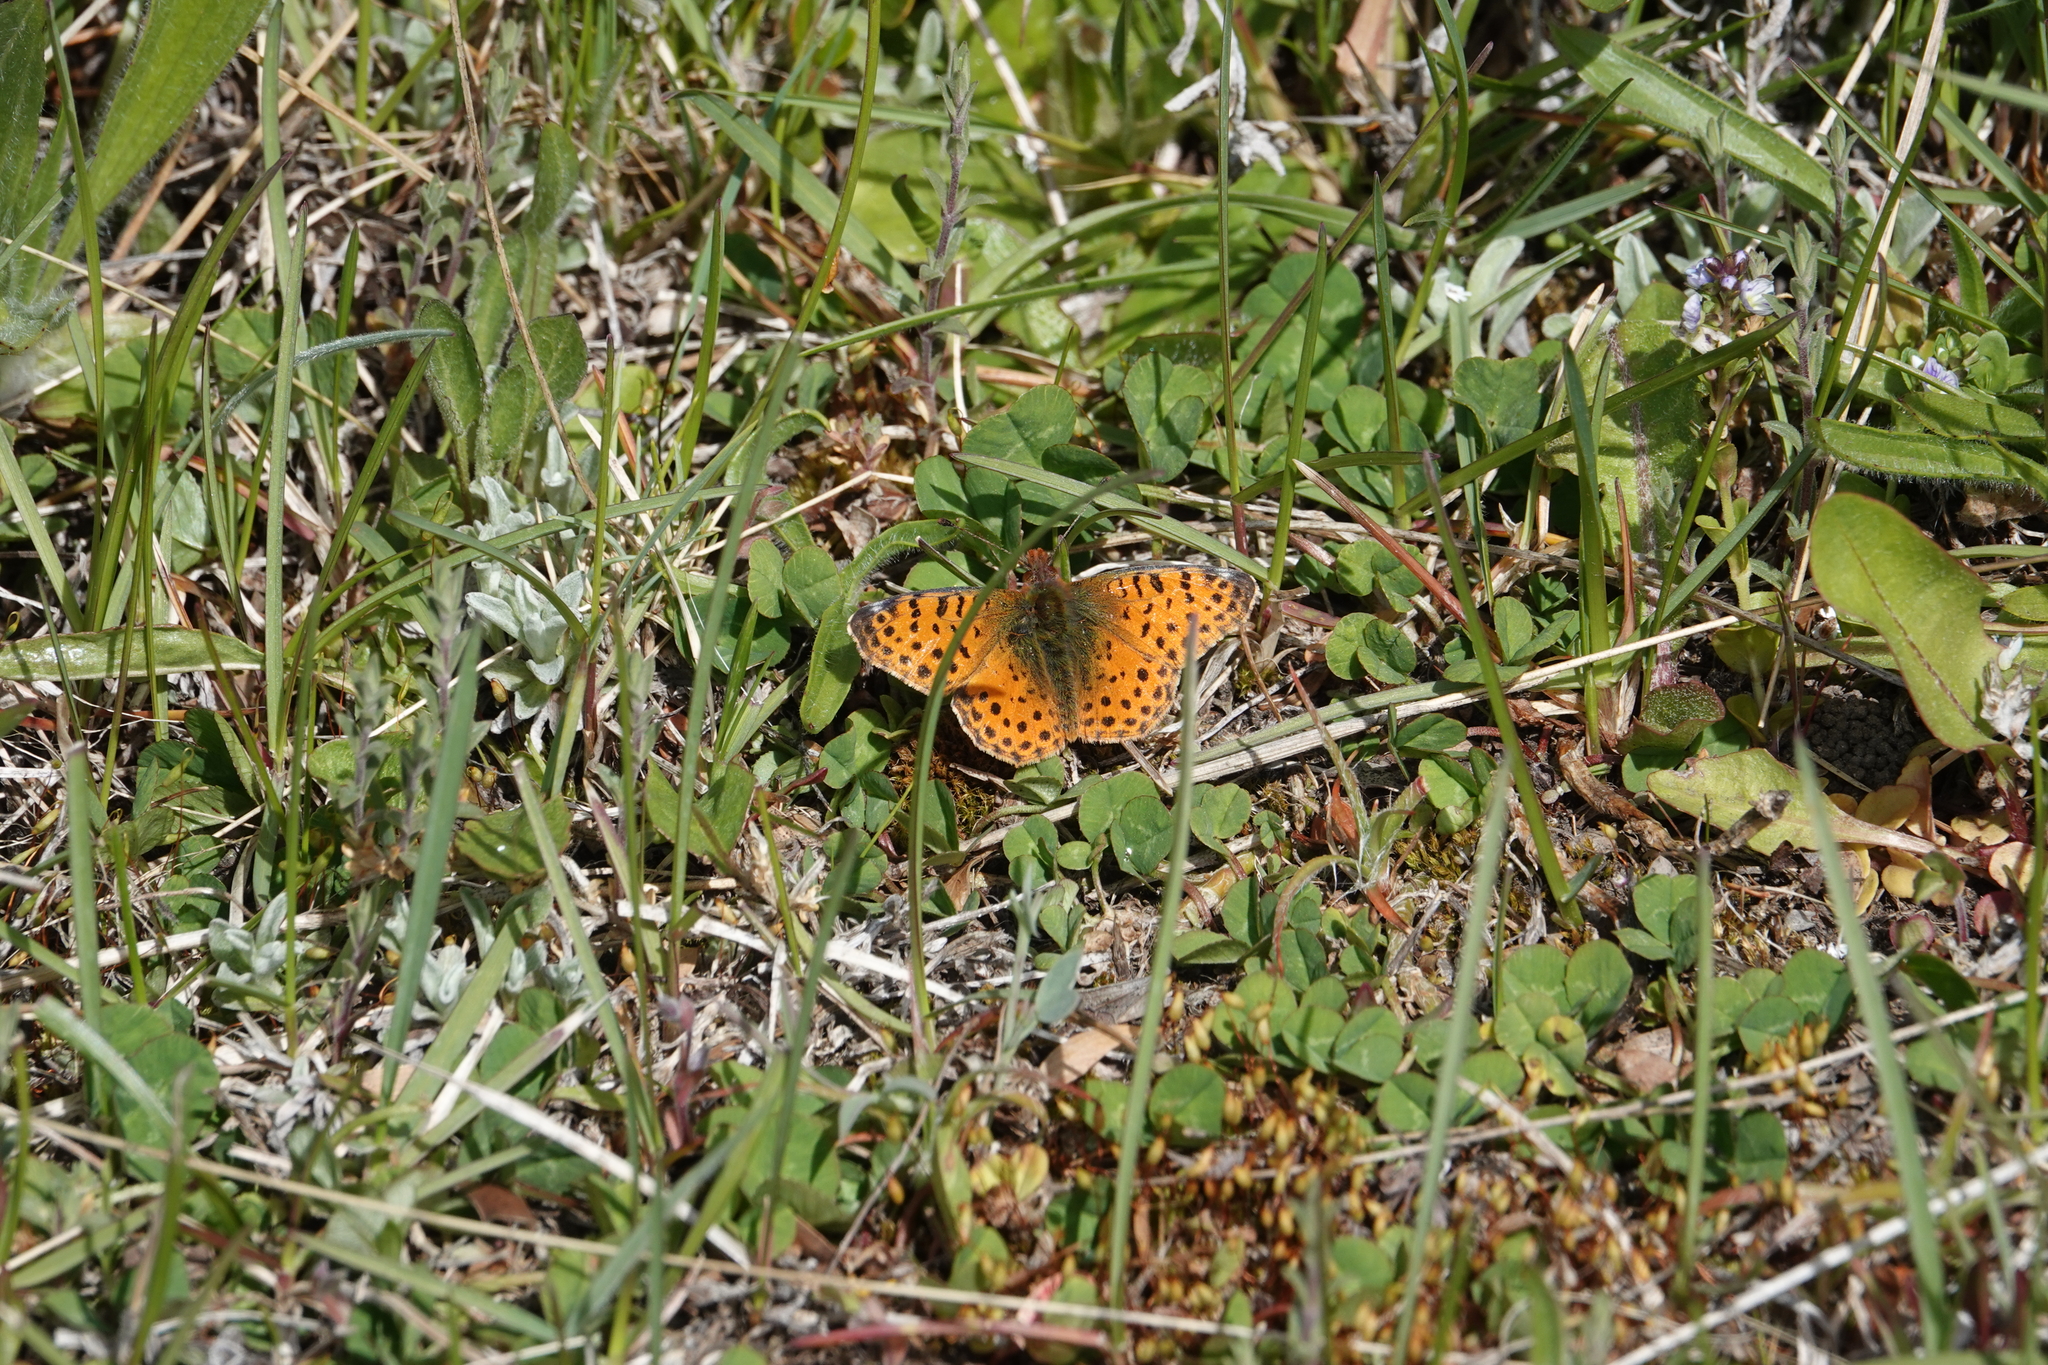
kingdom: Animalia
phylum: Arthropoda
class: Insecta
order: Lepidoptera
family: Nymphalidae
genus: Issoria
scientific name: Issoria Yramea cytheris
